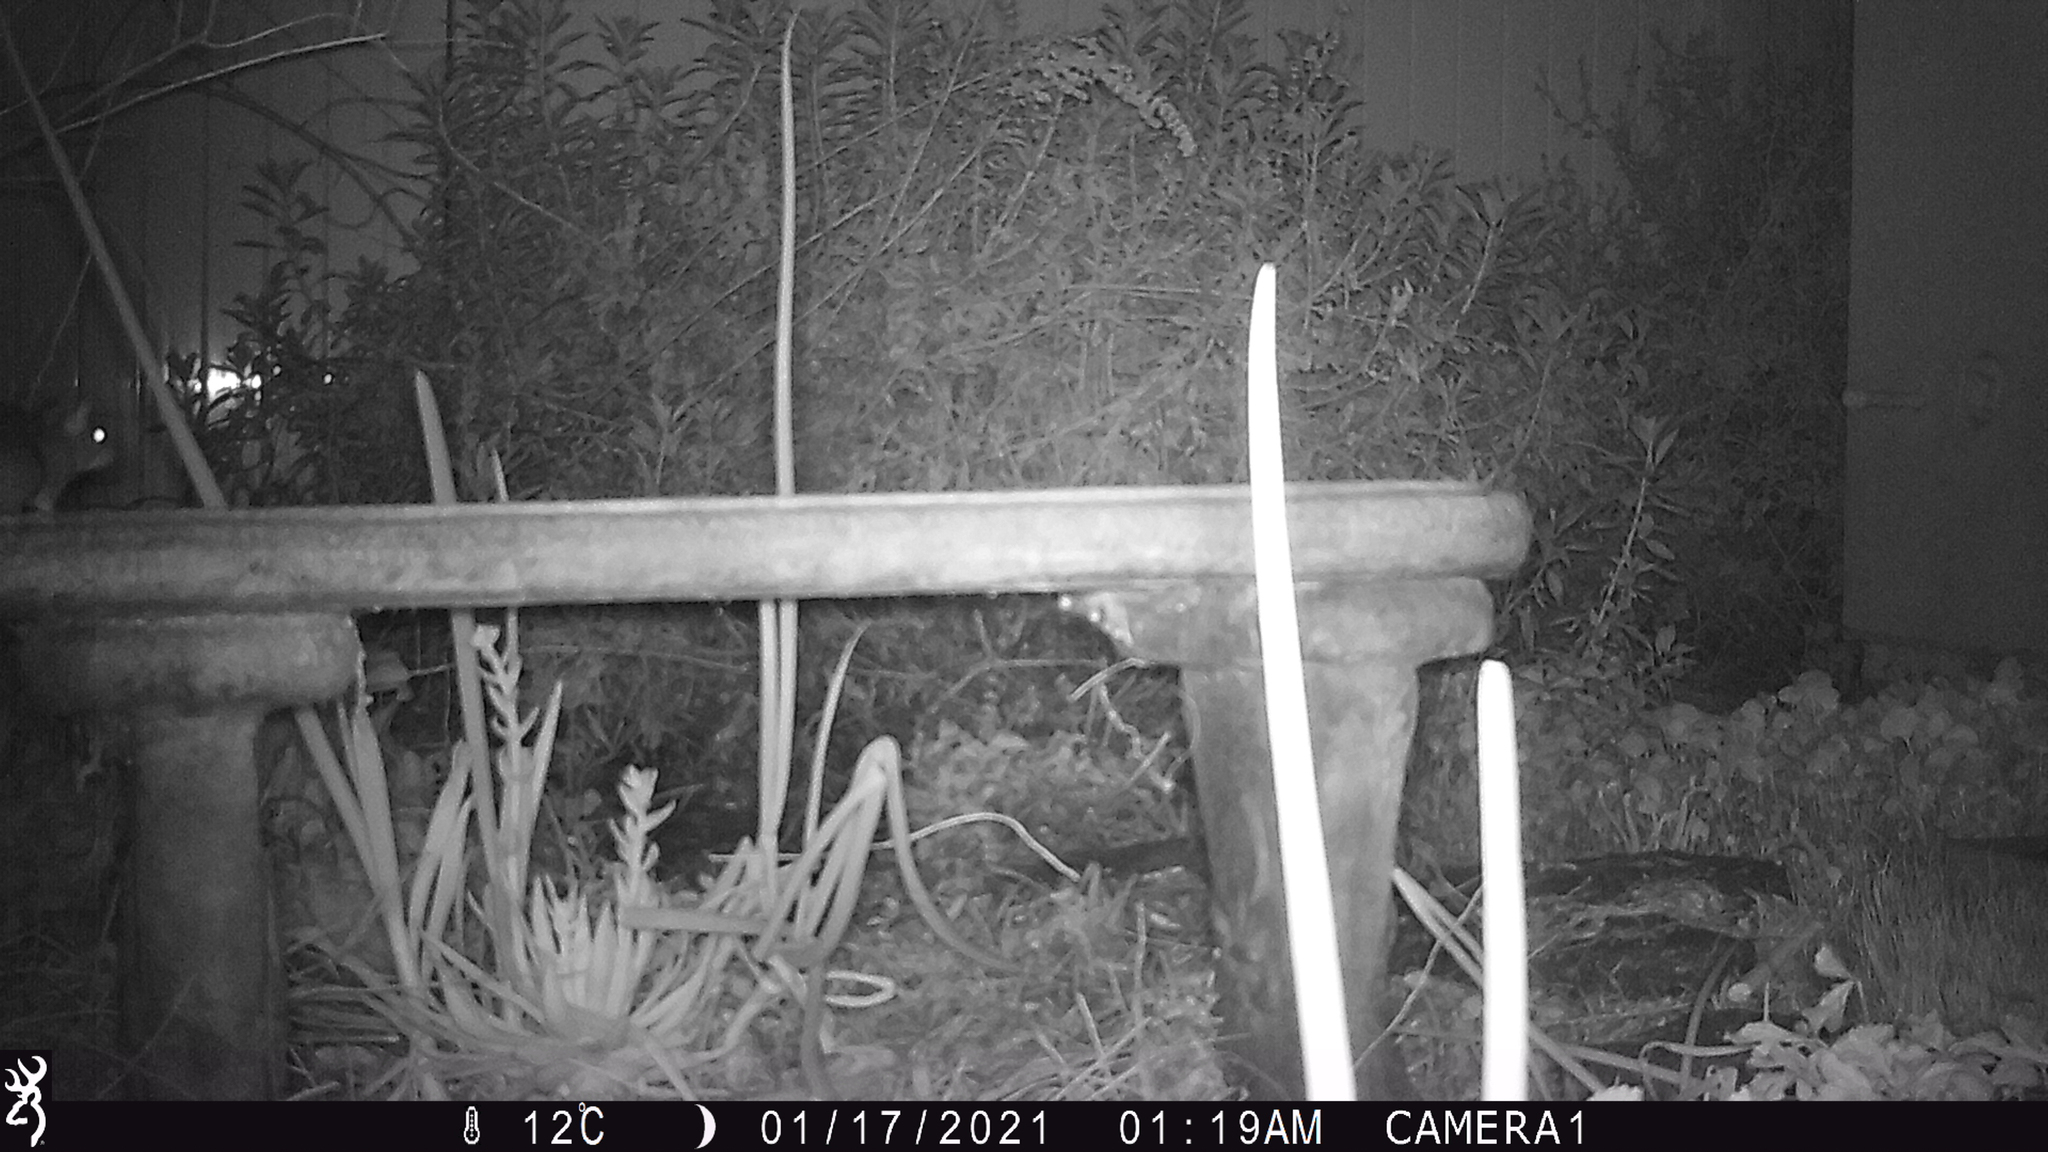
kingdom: Animalia
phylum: Chordata
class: Mammalia
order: Rodentia
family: Muridae
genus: Rattus
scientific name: Rattus rattus
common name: Black rat
